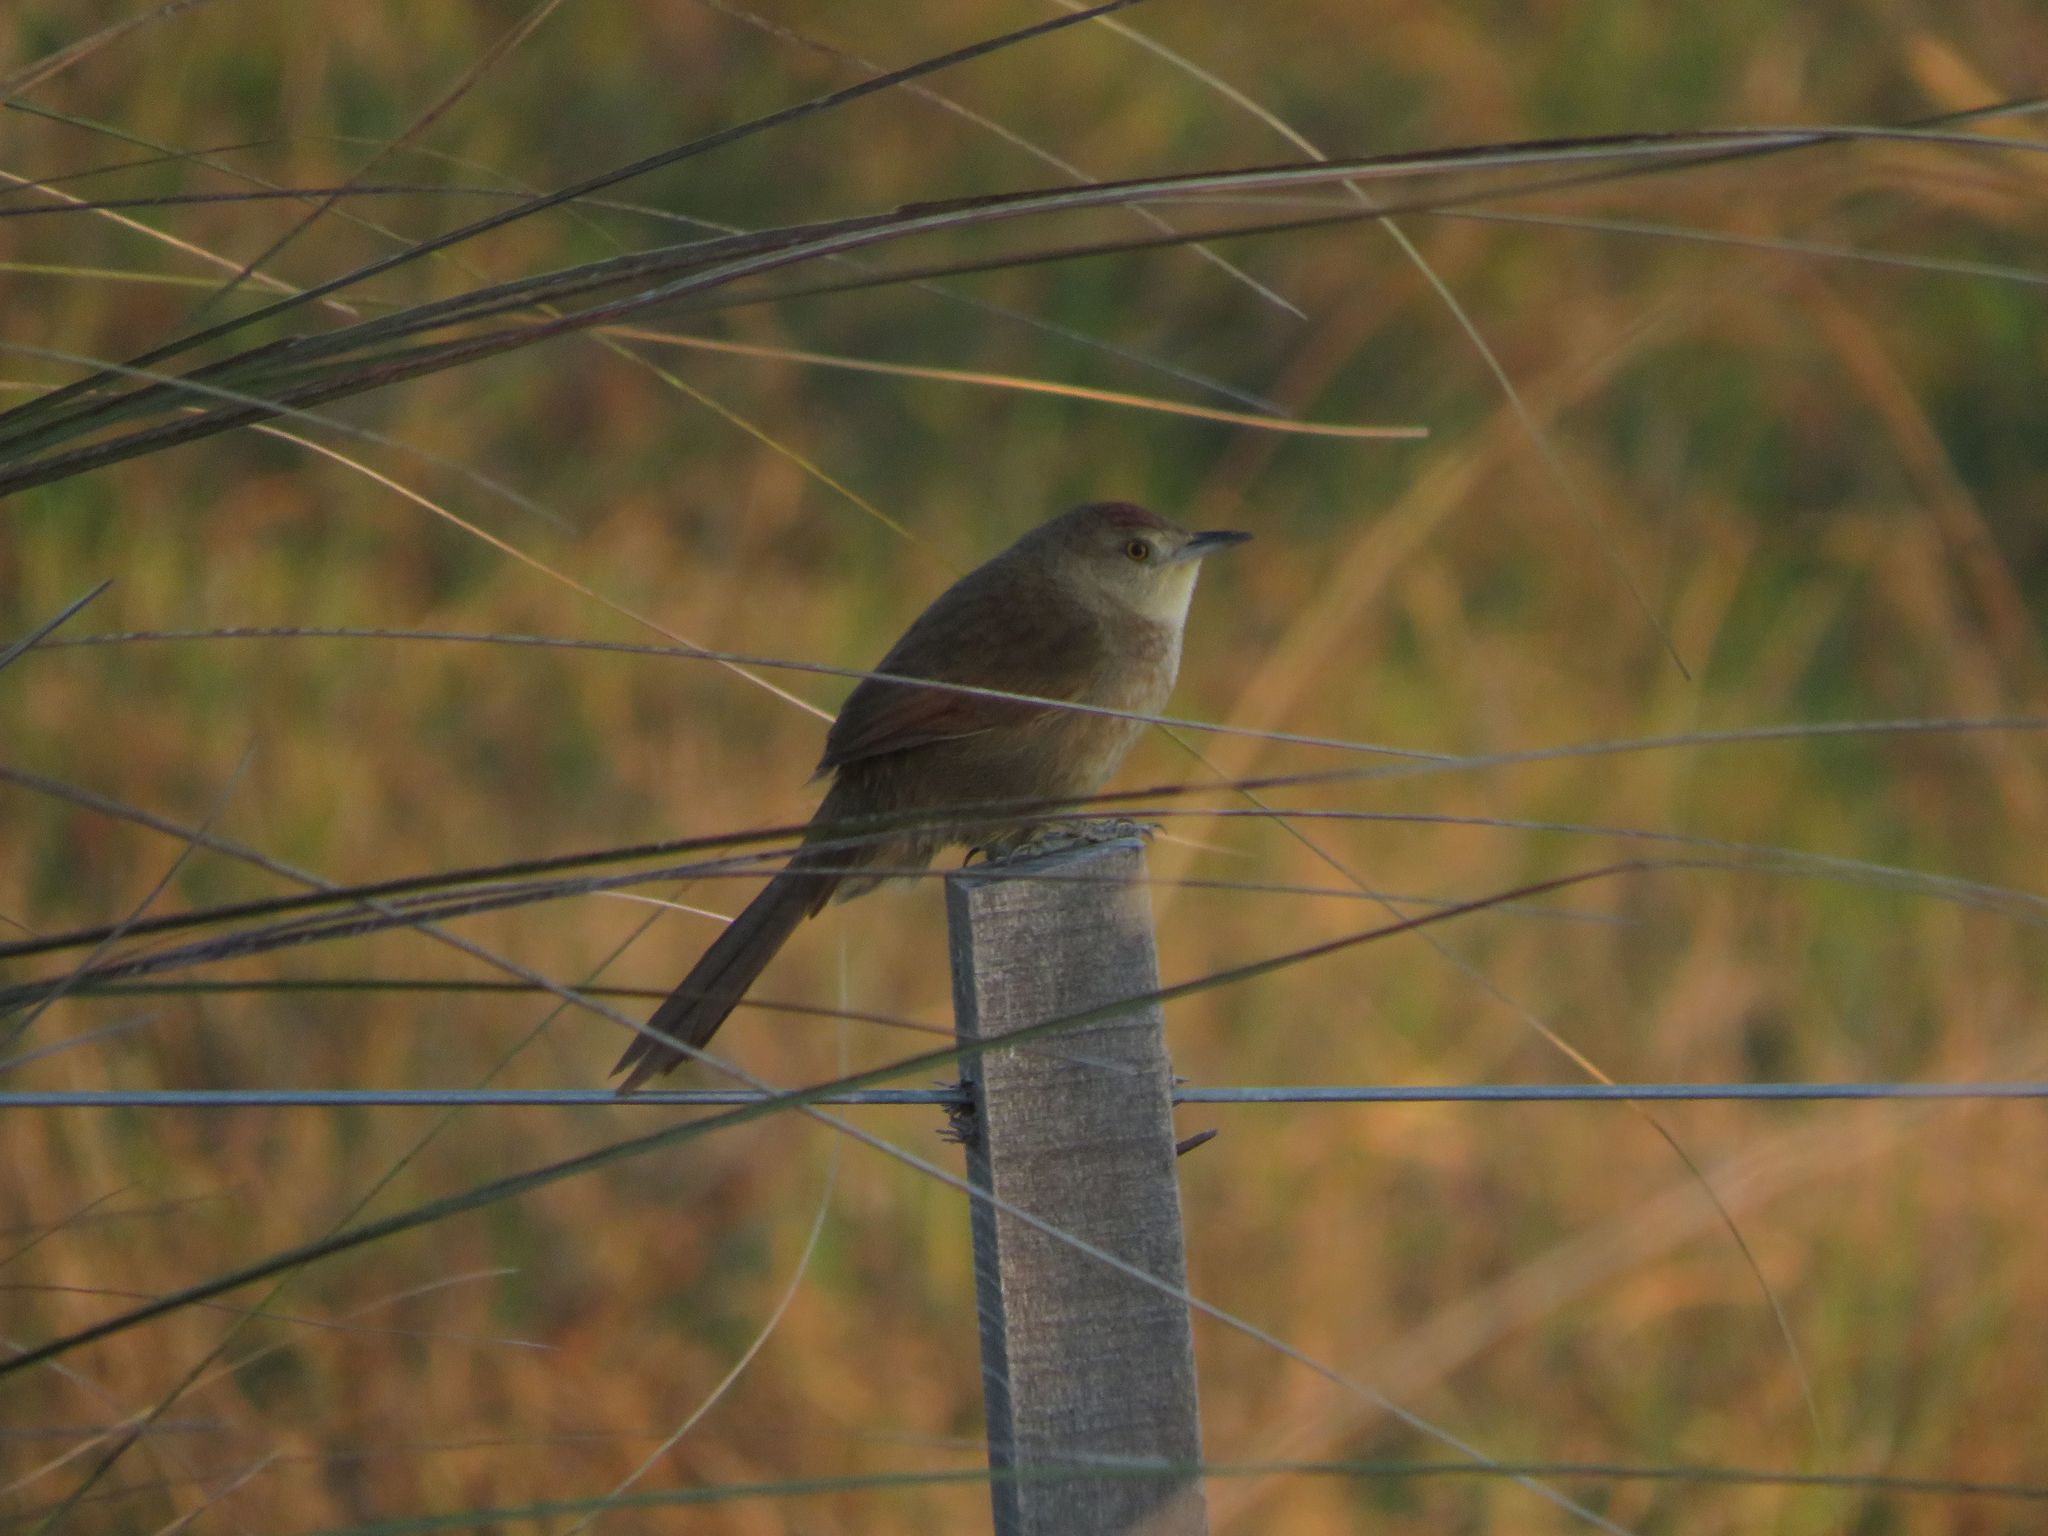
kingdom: Animalia
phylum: Chordata
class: Aves
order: Passeriformes
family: Furnariidae
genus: Phacellodomus
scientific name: Phacellodomus striaticollis
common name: Freckle-breasted thornbird
